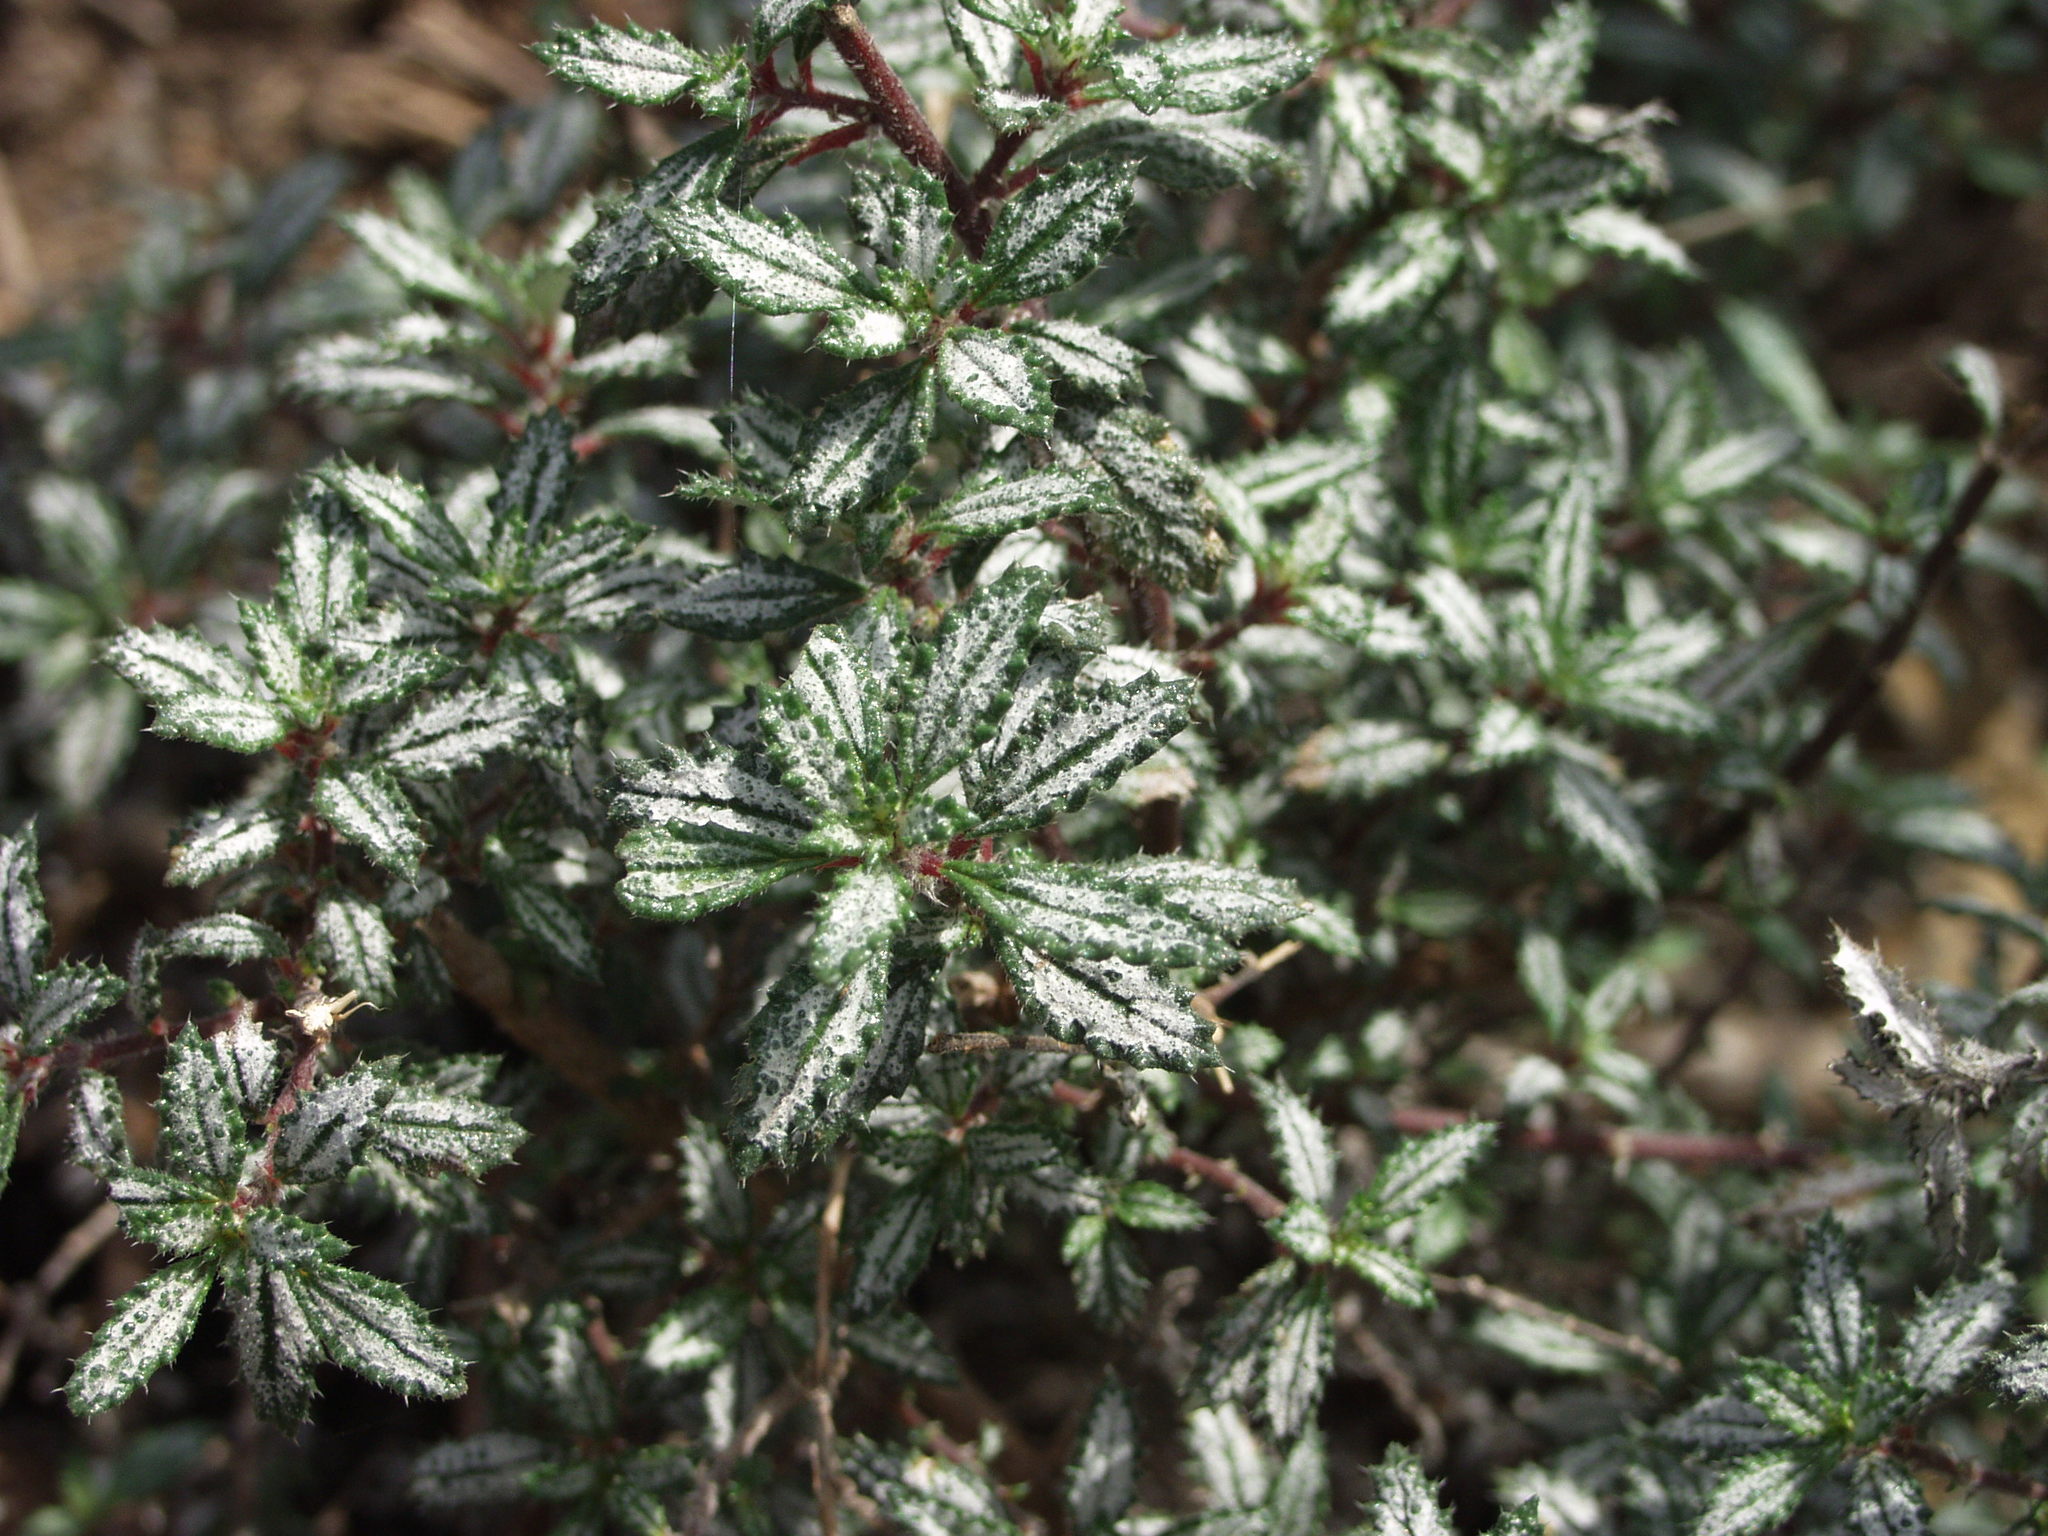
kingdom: Plantae
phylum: Tracheophyta
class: Magnoliopsida
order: Rosales
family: Urticaceae
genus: Forsskaolea
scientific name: Forsskaolea angustifolia
